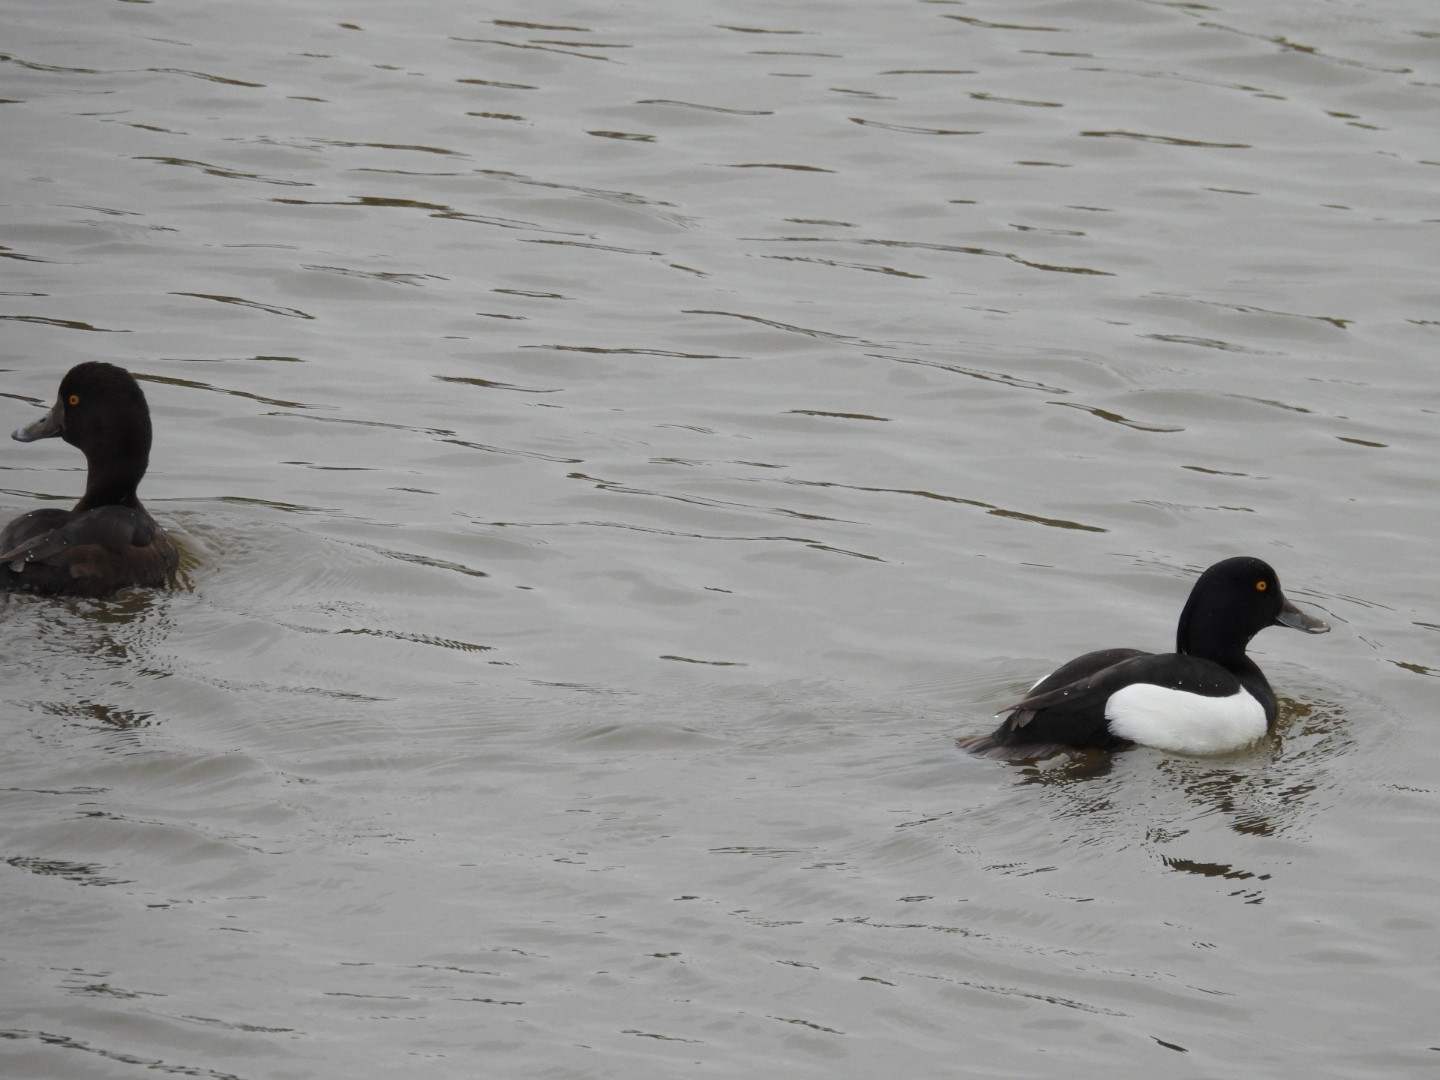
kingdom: Animalia
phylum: Chordata
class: Aves
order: Anseriformes
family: Anatidae
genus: Aythya
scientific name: Aythya fuligula
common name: Tufted duck
